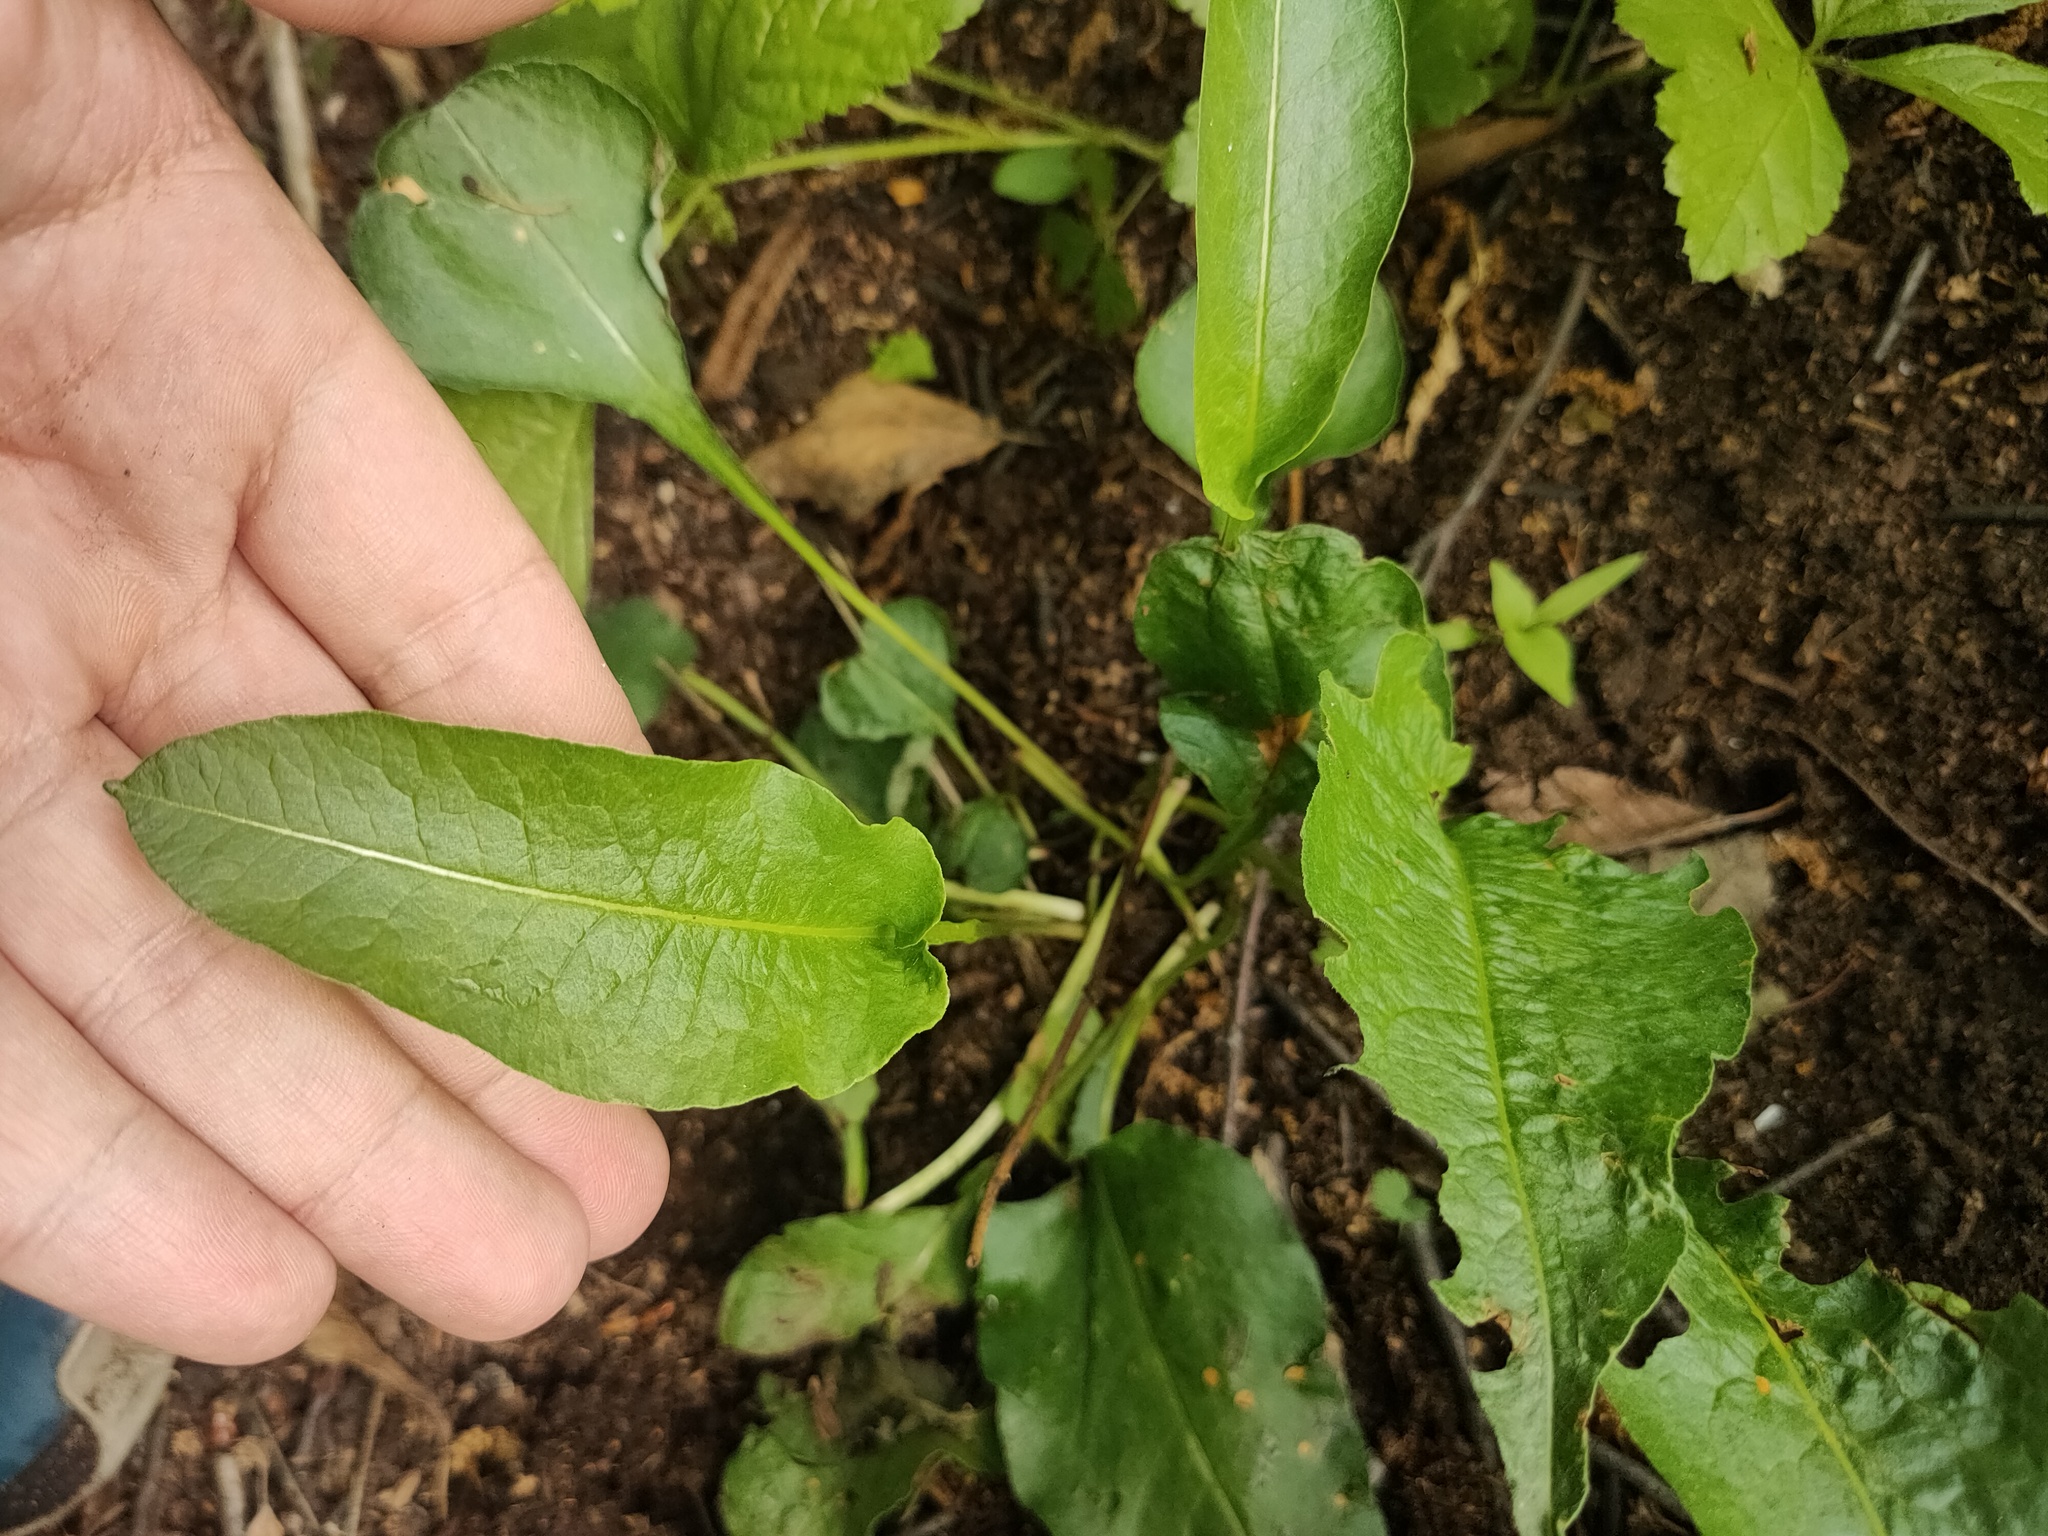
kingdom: Plantae
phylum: Tracheophyta
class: Magnoliopsida
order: Caryophyllales
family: Polygonaceae
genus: Bistorta
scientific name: Bistorta officinalis
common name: Common bistort
